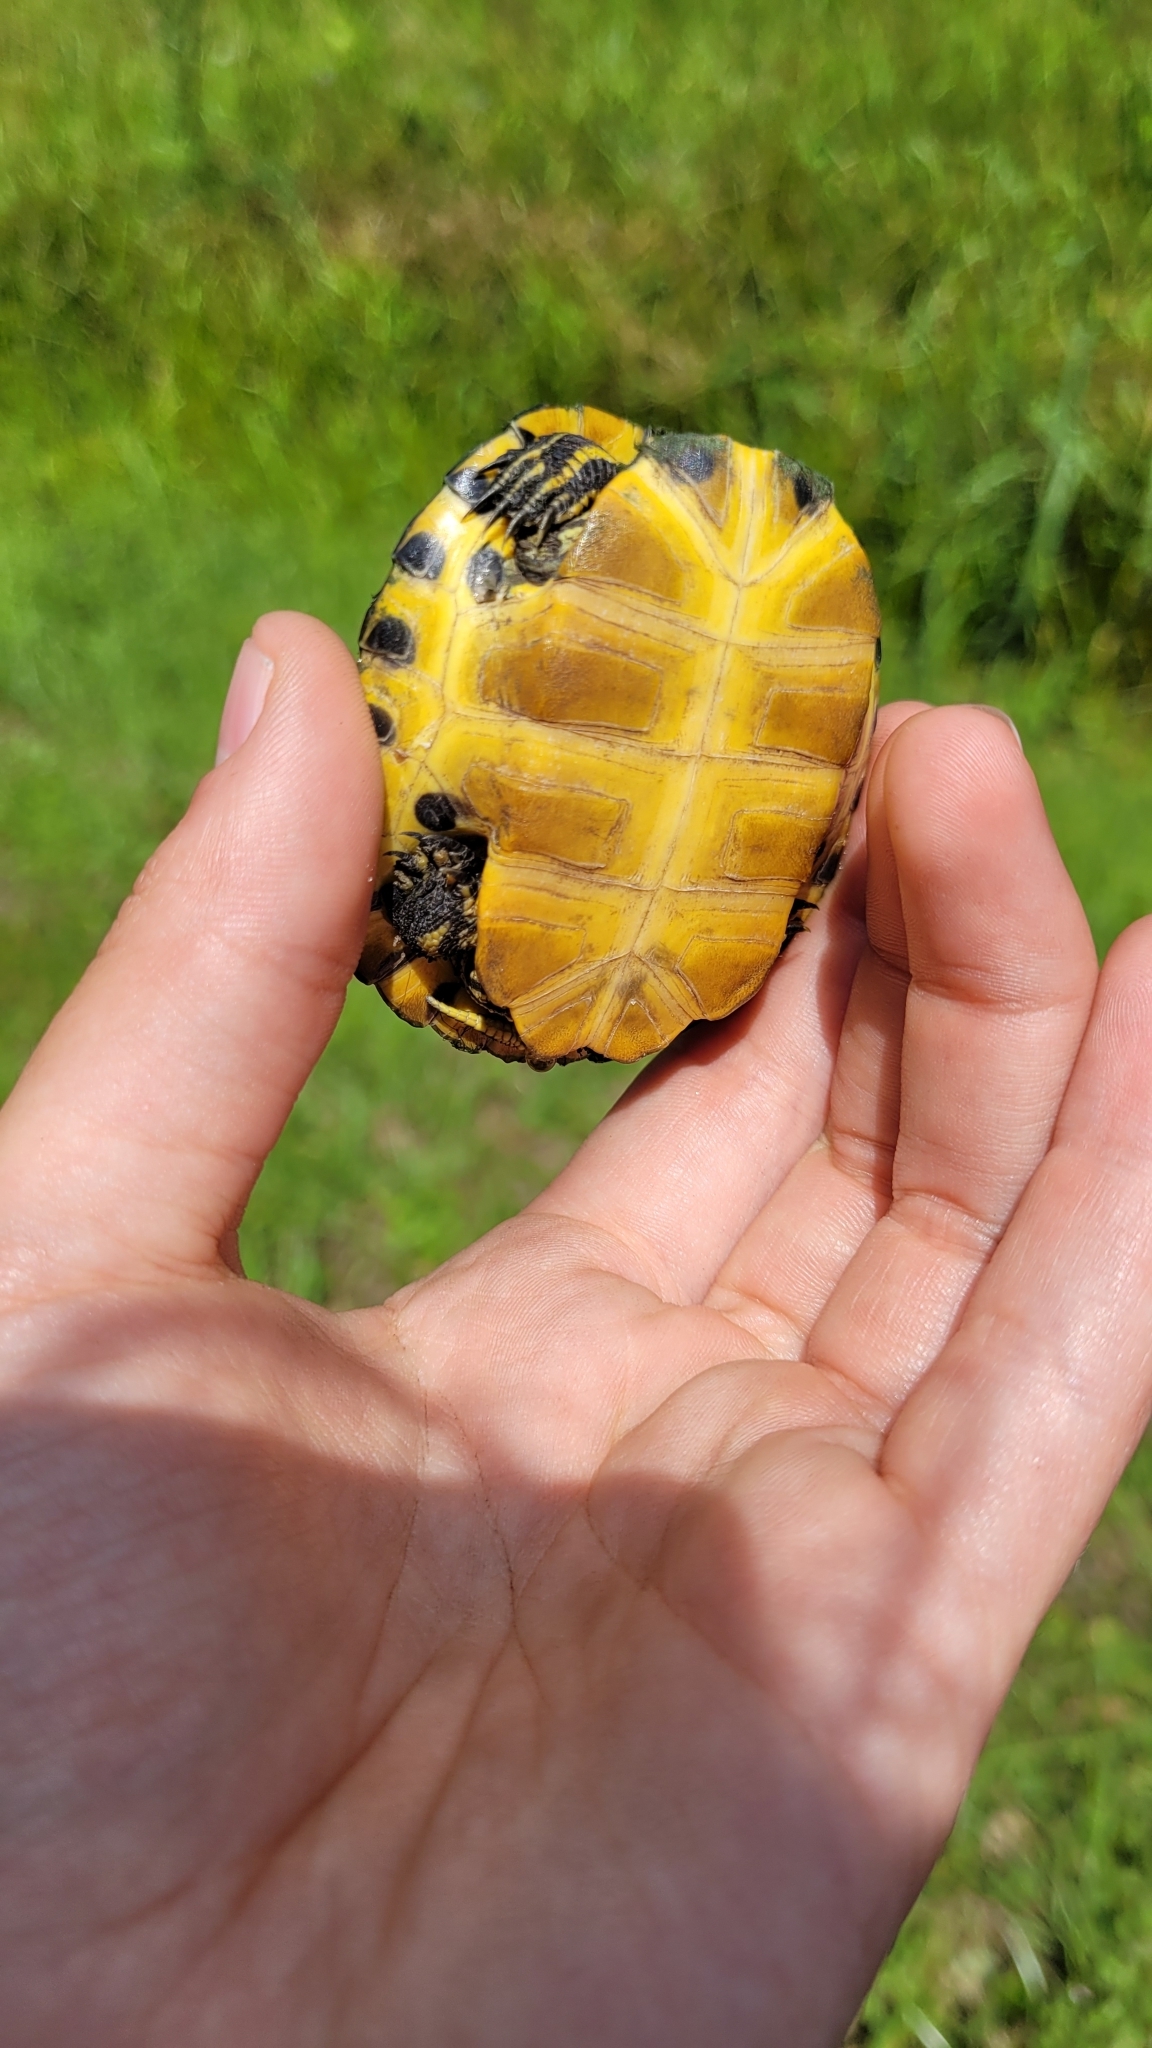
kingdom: Animalia
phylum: Chordata
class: Testudines
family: Emydidae
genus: Trachemys
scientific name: Trachemys scripta
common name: Slider
